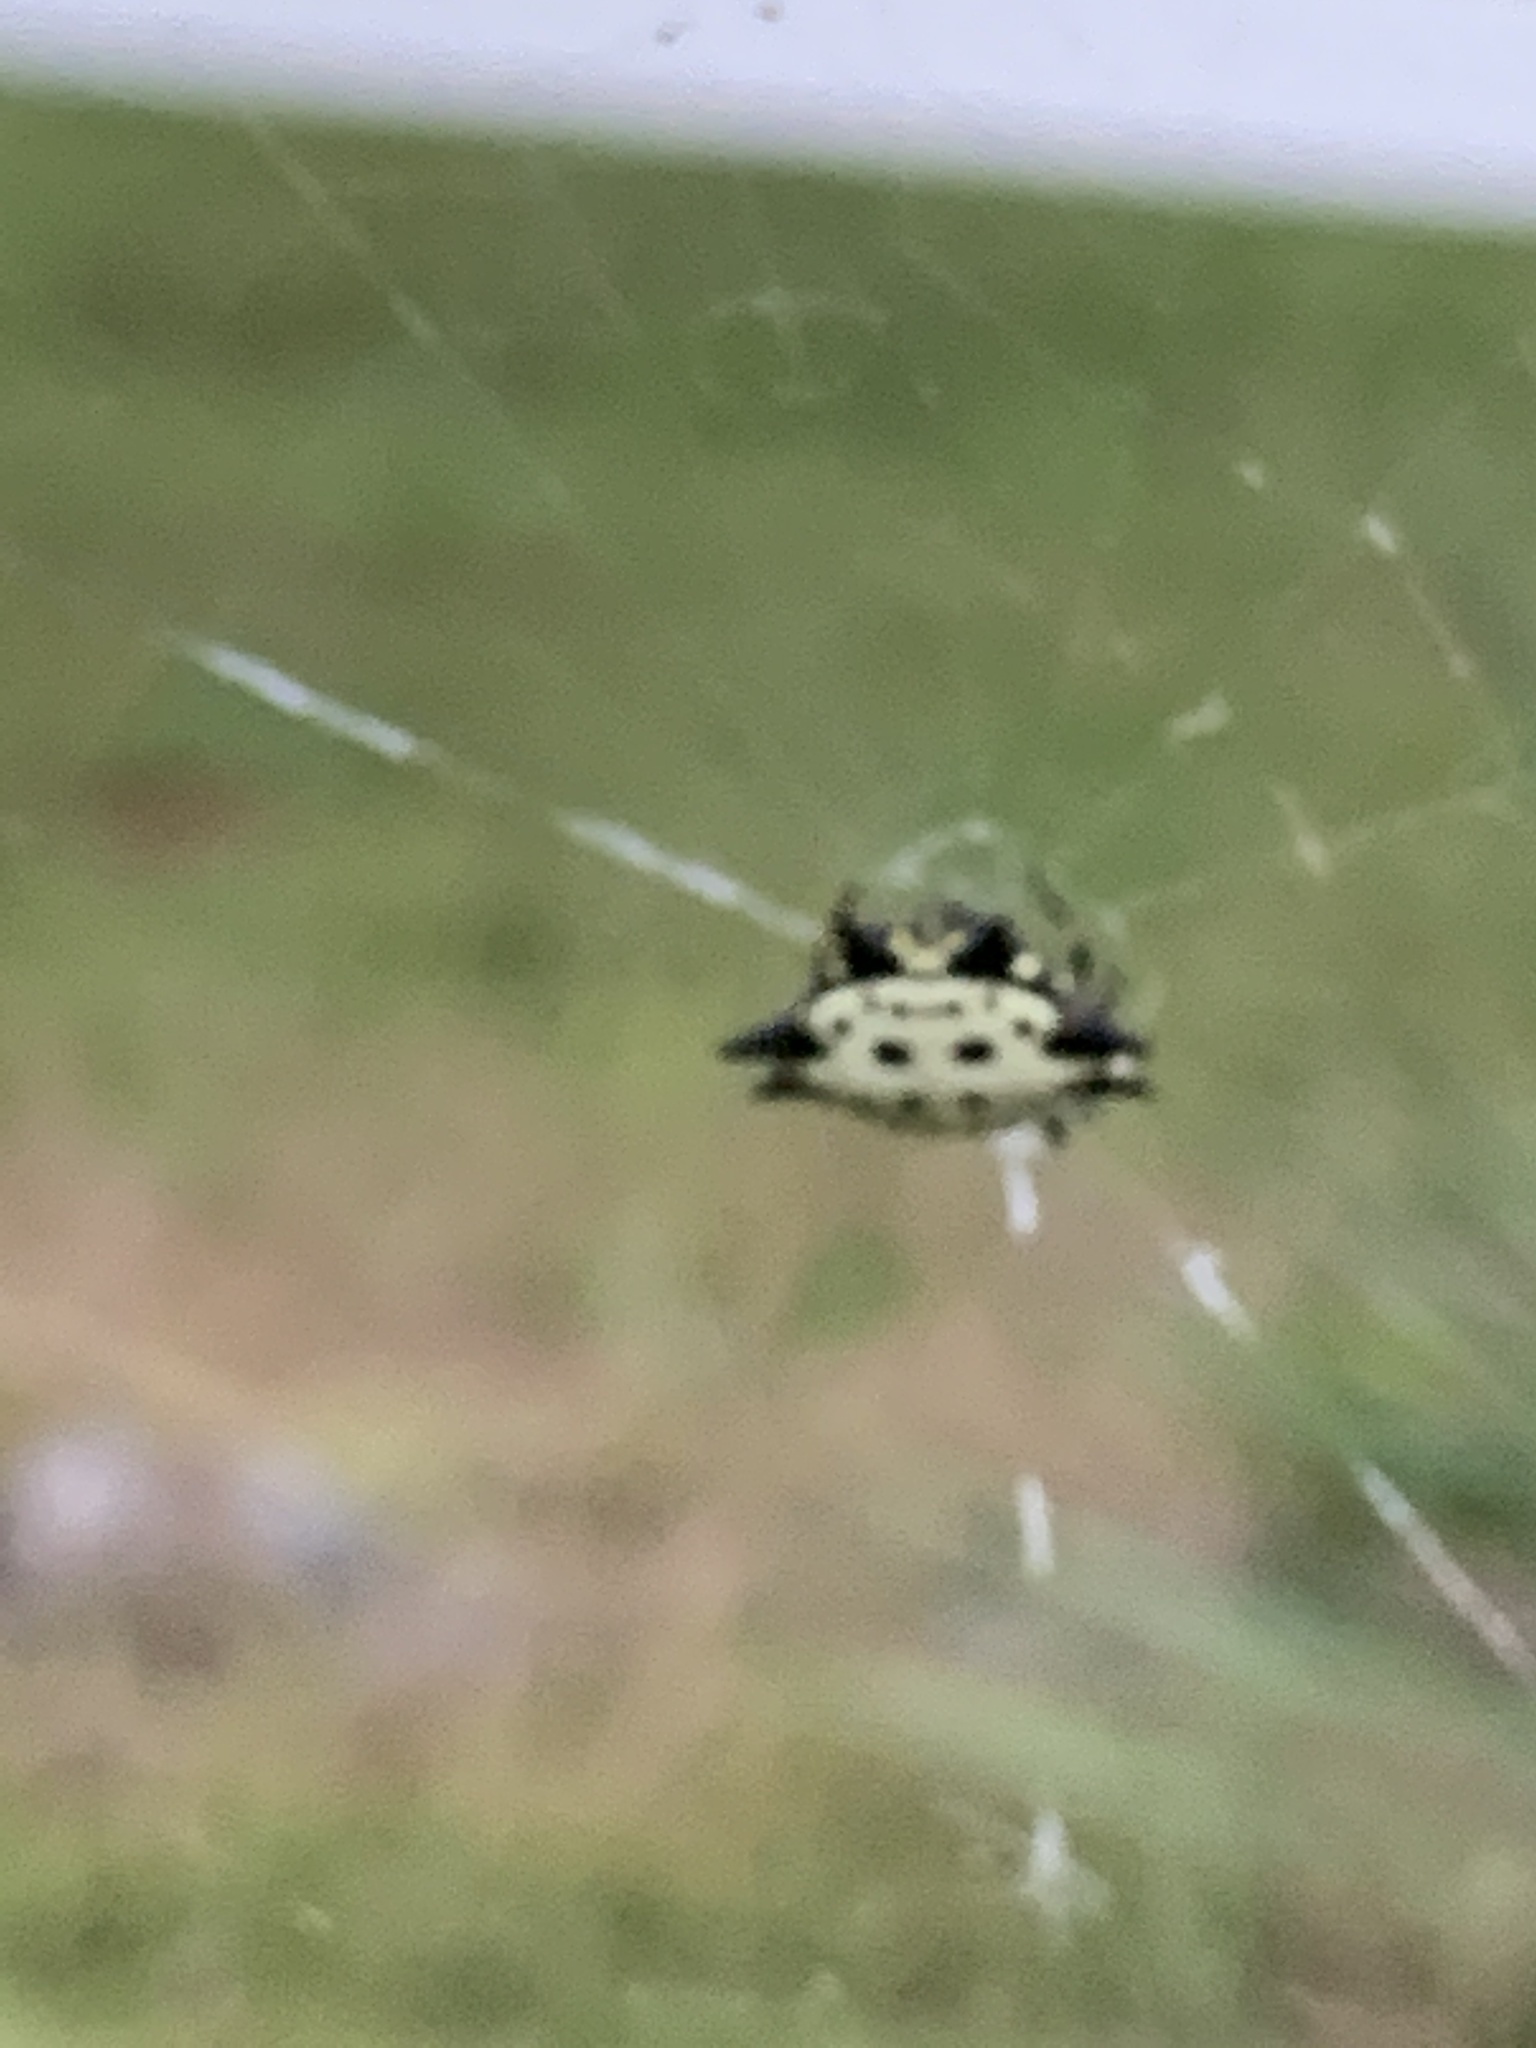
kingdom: Animalia
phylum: Arthropoda
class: Arachnida
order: Araneae
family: Araneidae
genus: Gasteracantha
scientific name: Gasteracantha cancriformis
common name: Orb weavers
